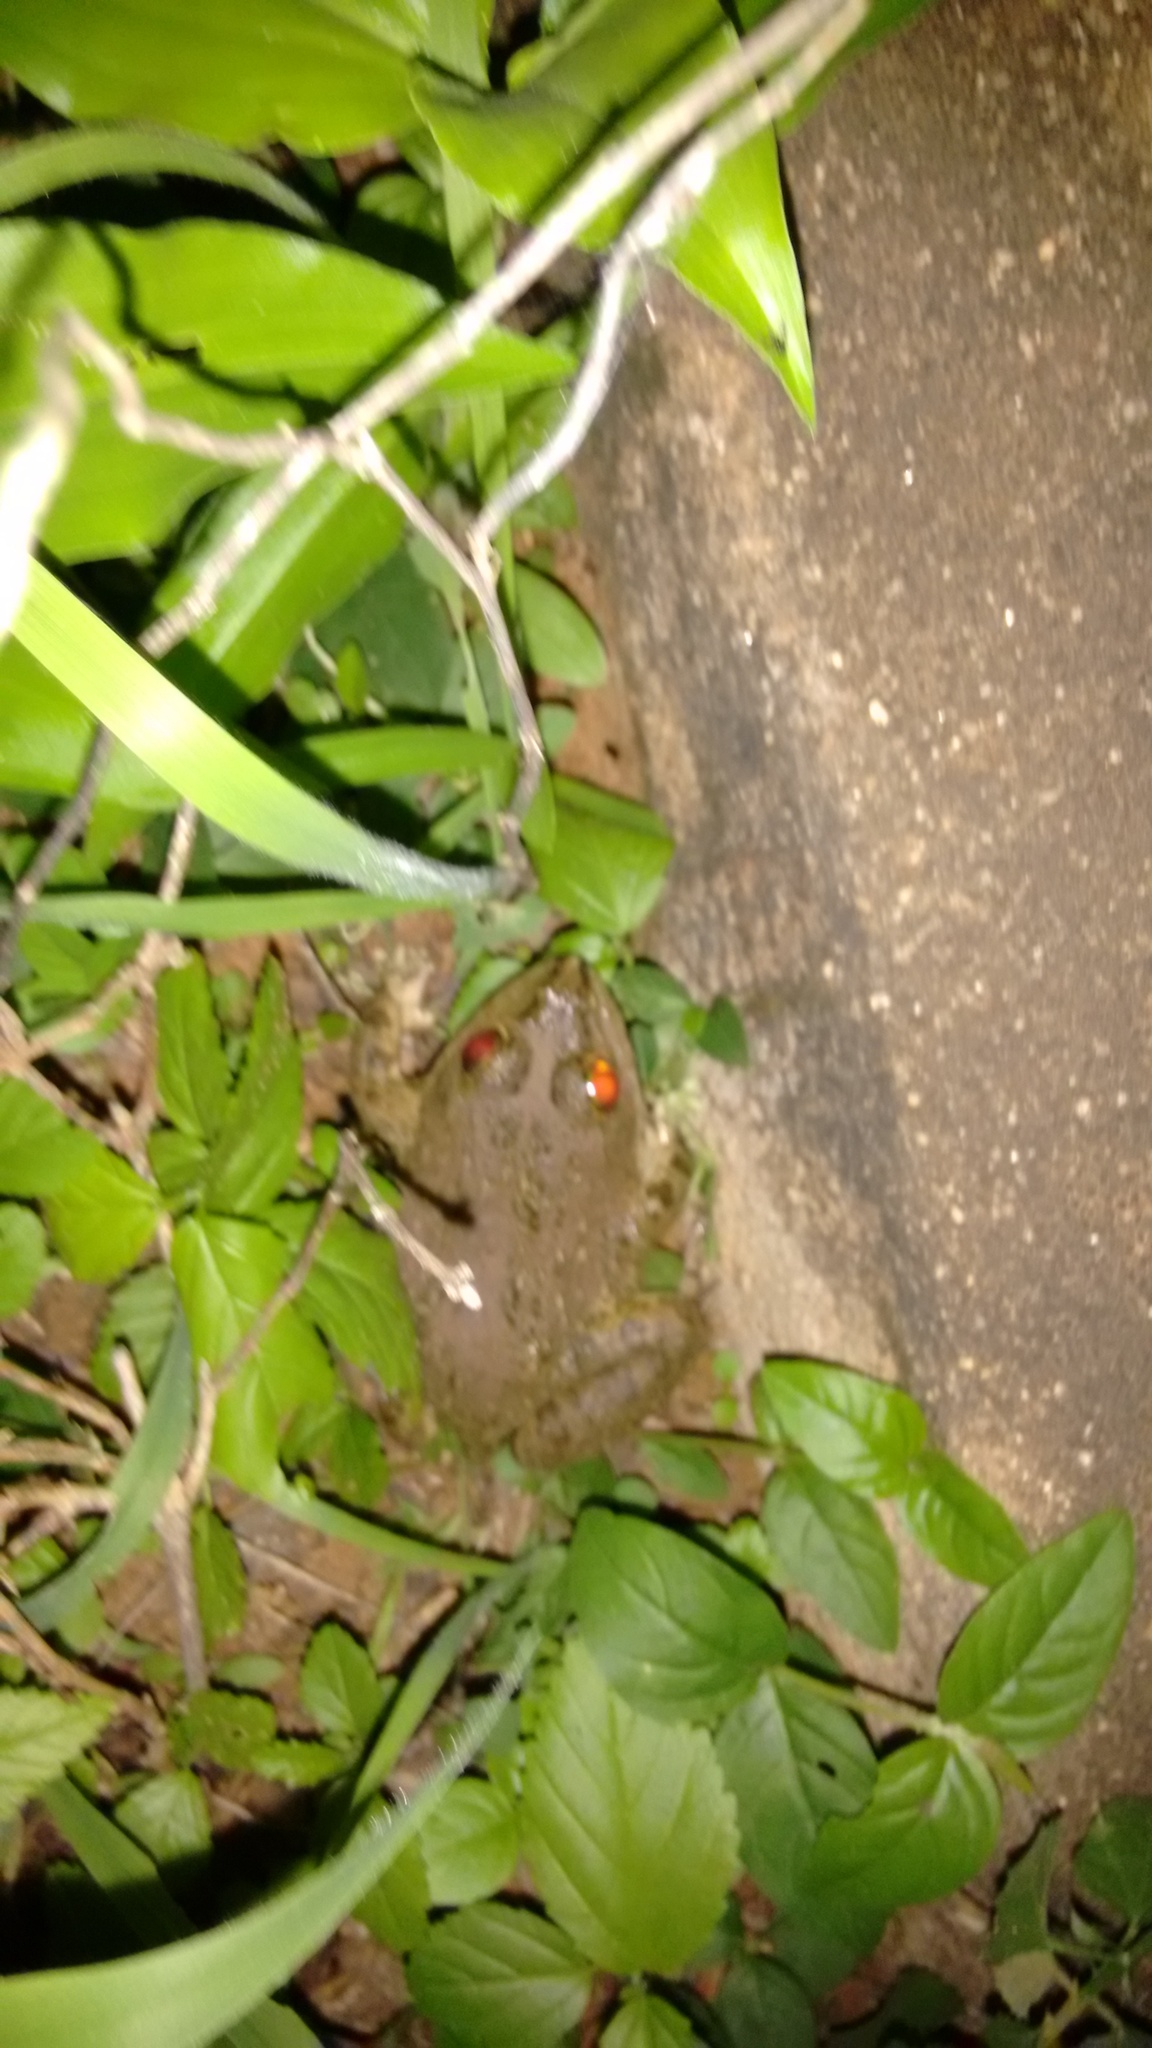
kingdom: Animalia
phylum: Chordata
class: Amphibia
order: Anura
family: Dicroglossidae
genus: Hoplobatrachus
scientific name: Hoplobatrachus tigerinus
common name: Indian bullfrog
